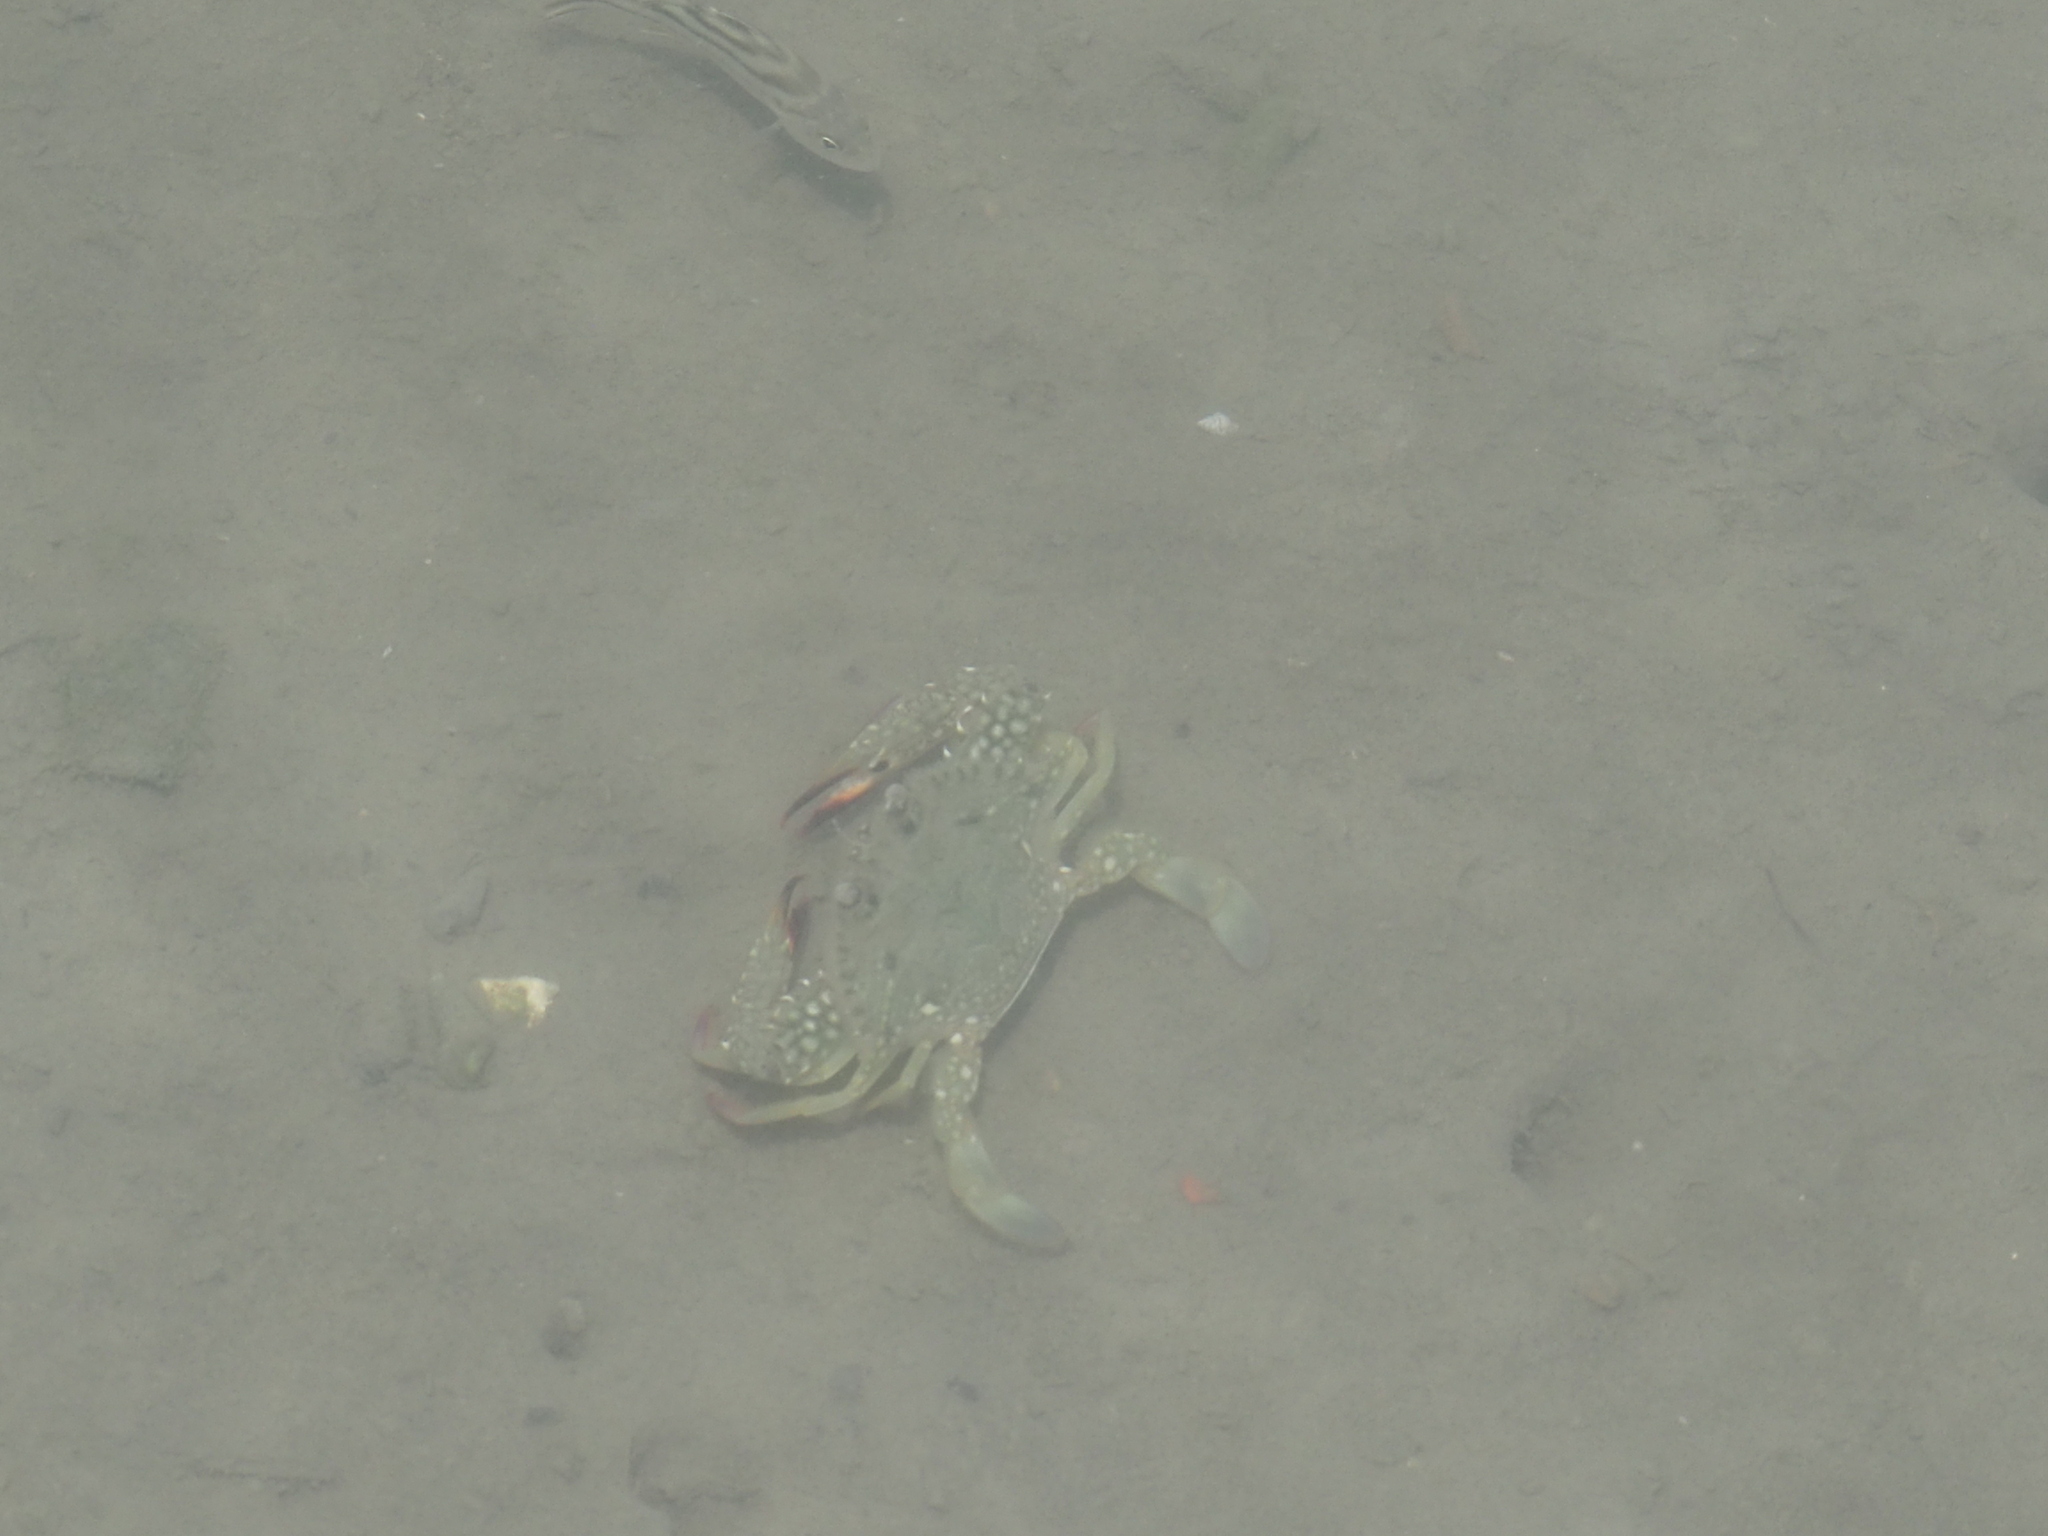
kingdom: Animalia
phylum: Arthropoda
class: Malacostraca
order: Decapoda
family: Portunidae
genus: Portunus
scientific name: Portunus pelagicus
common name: Blue swimming crab
